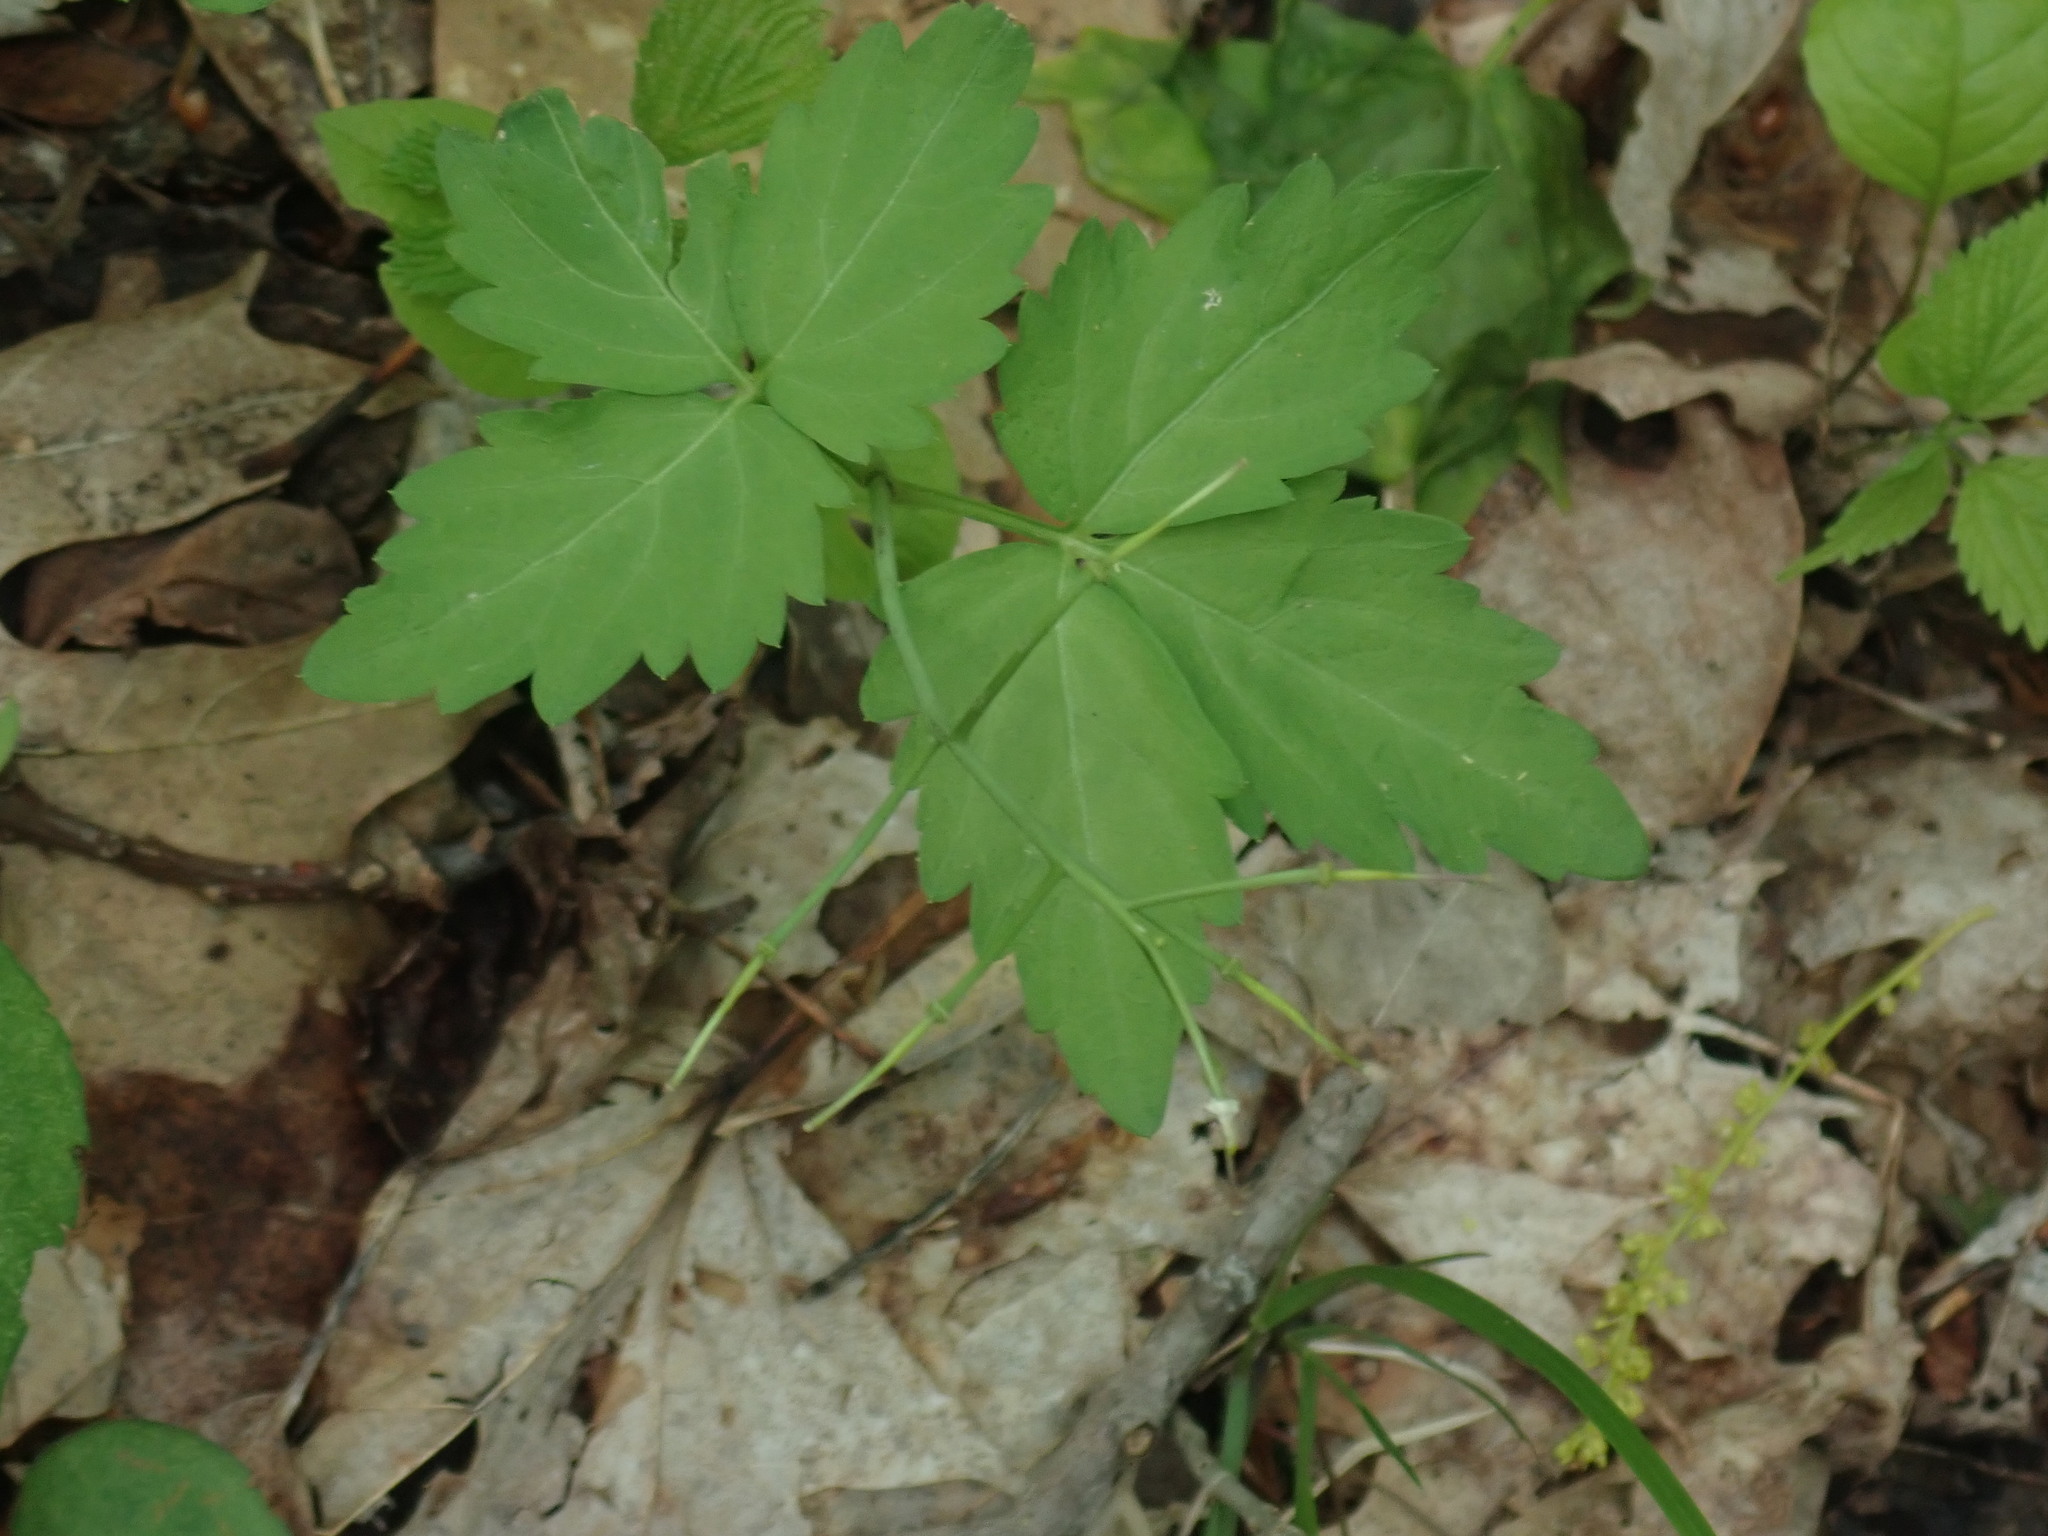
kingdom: Plantae
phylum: Tracheophyta
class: Magnoliopsida
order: Brassicales
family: Brassicaceae
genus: Cardamine
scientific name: Cardamine diphylla
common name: Broad-leaved toothwort
